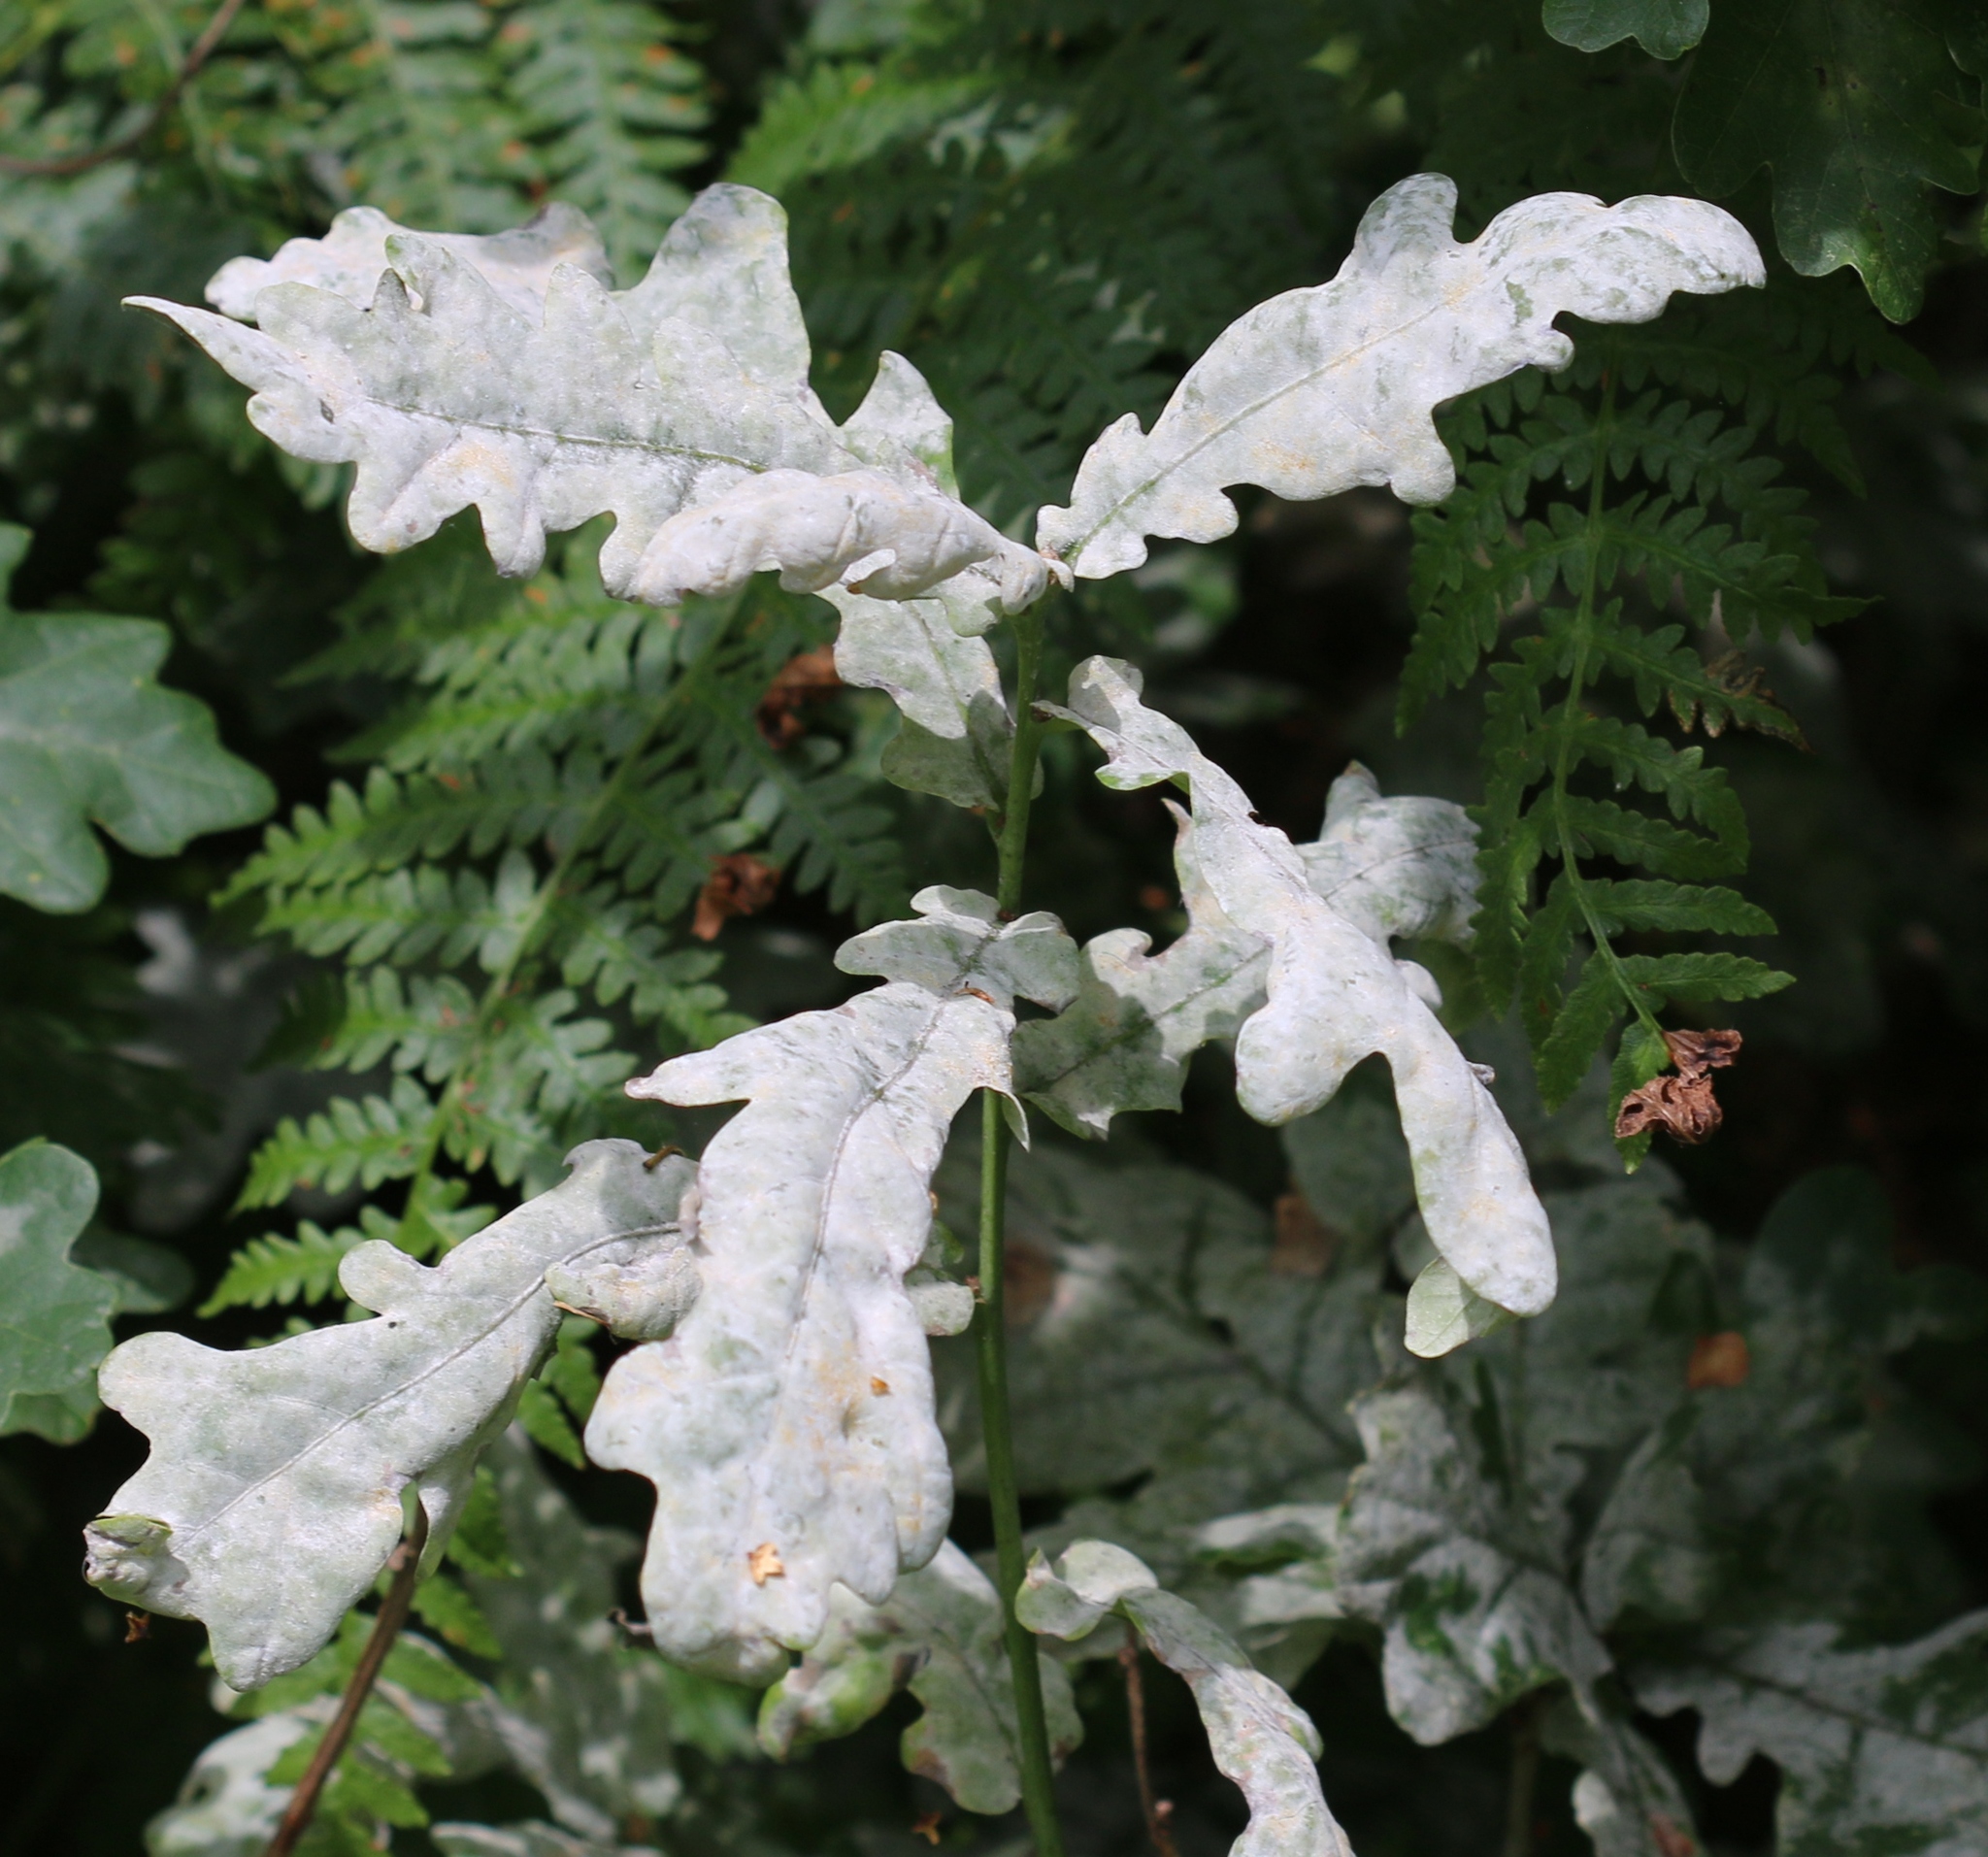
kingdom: Fungi
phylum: Ascomycota
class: Leotiomycetes
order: Helotiales
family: Erysiphaceae
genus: Erysiphe
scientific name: Erysiphe alphitoides
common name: Oak mildew
